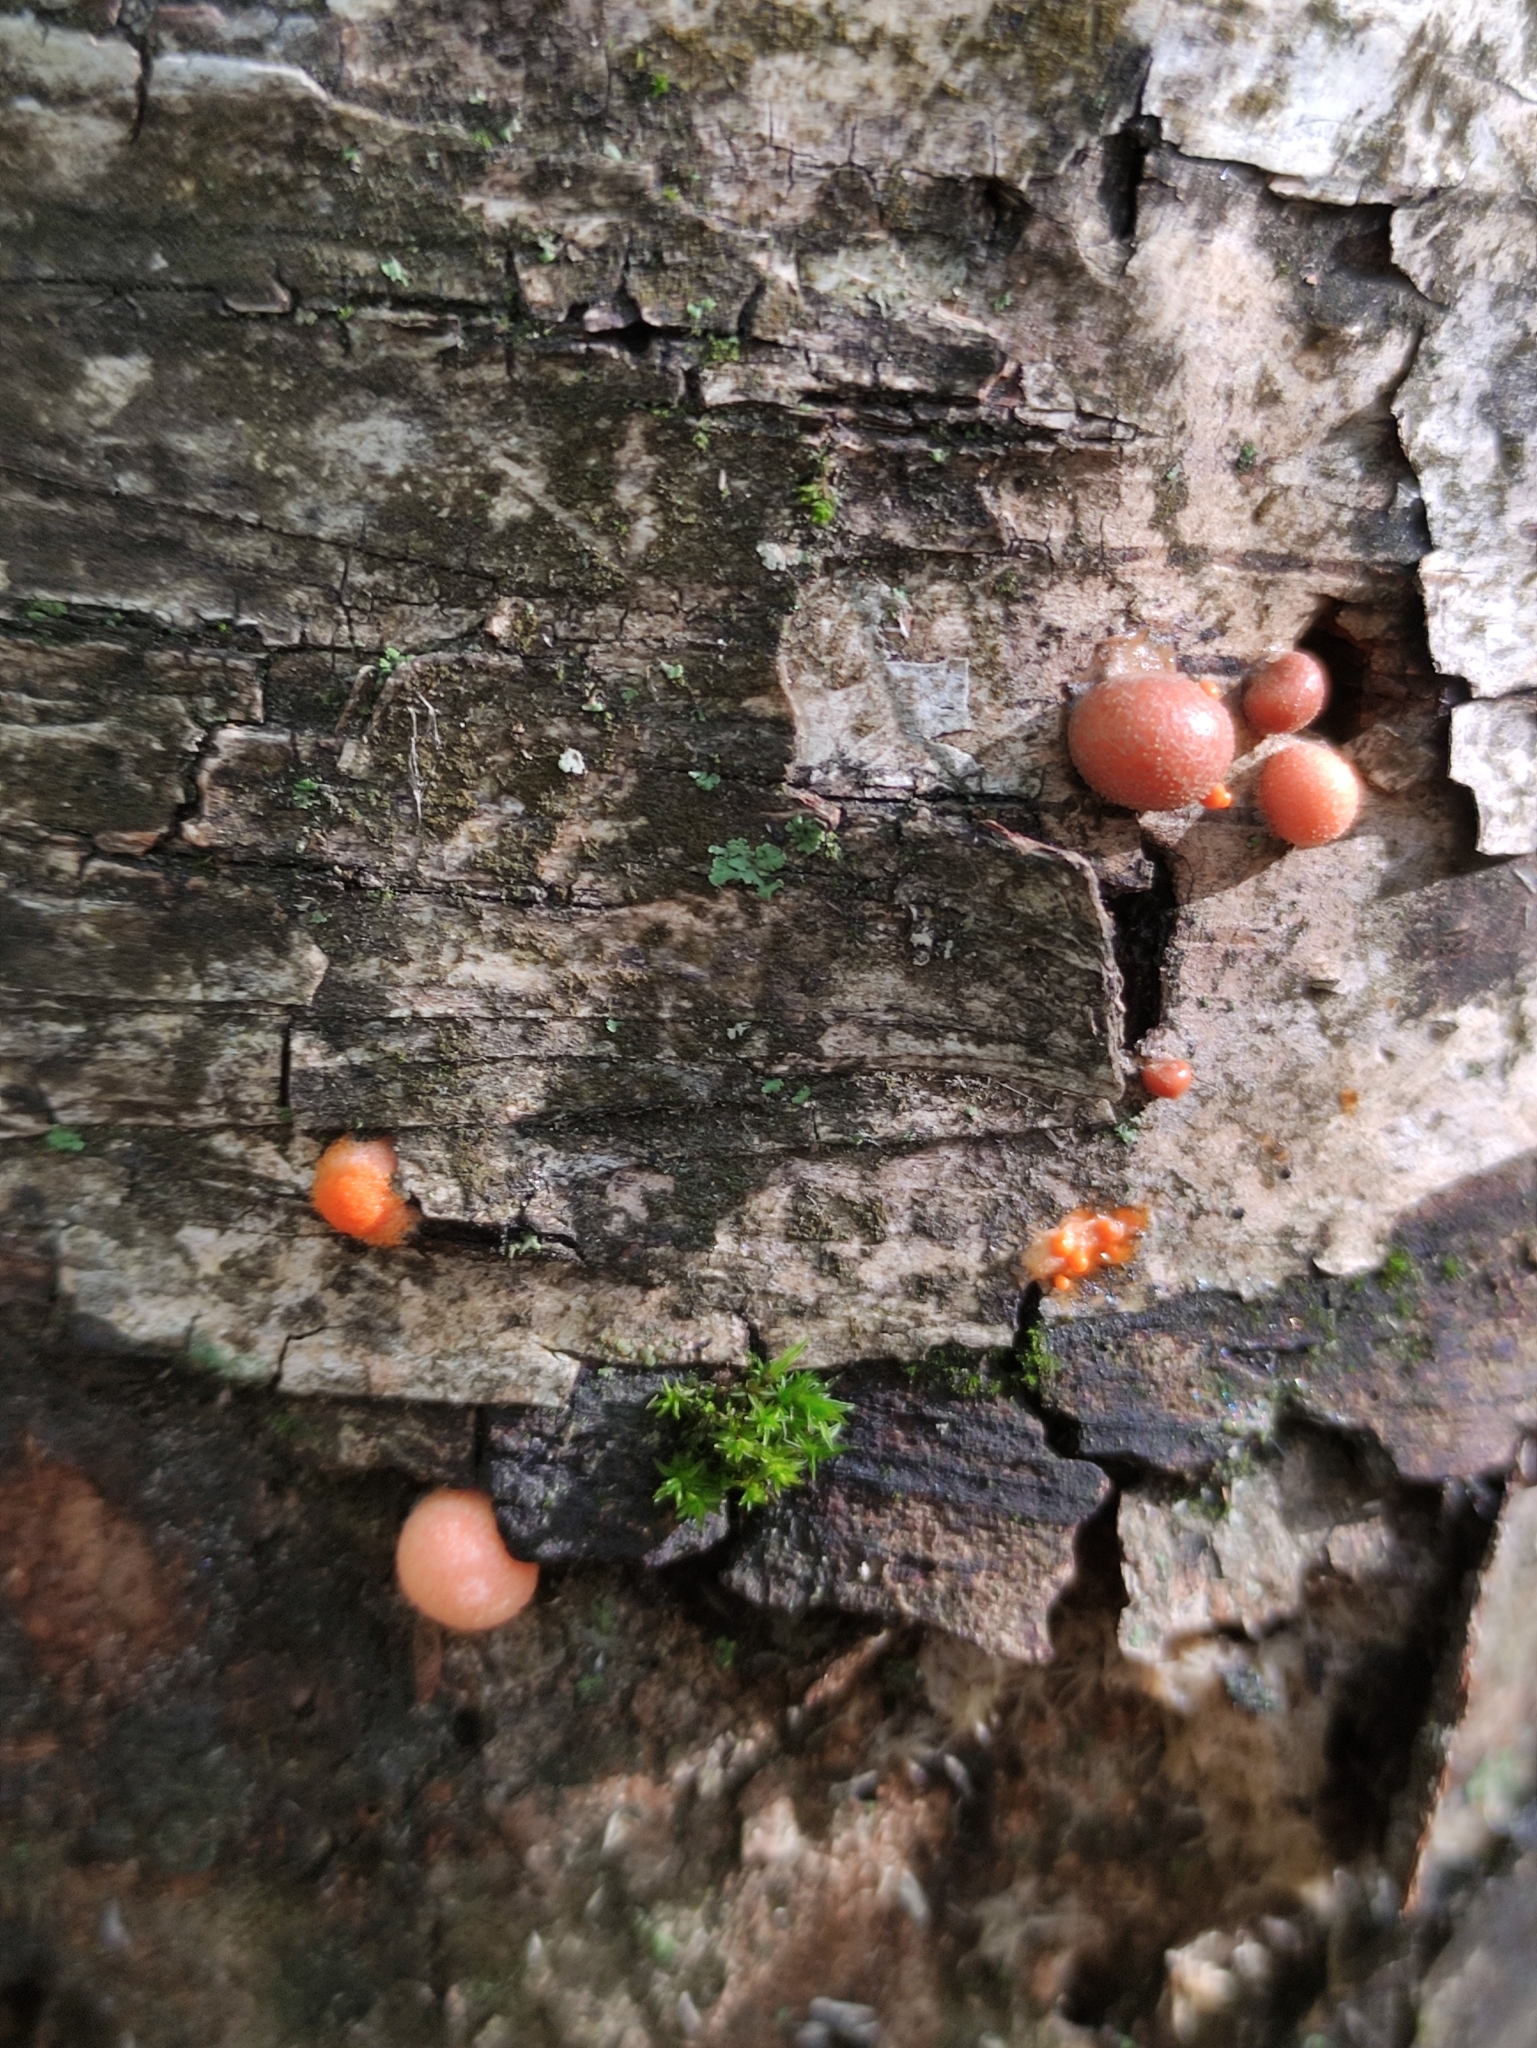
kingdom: Protozoa
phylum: Mycetozoa
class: Myxomycetes
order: Cribrariales
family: Tubiferaceae
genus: Lycogala
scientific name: Lycogala epidendrum
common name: Wolf's milk
